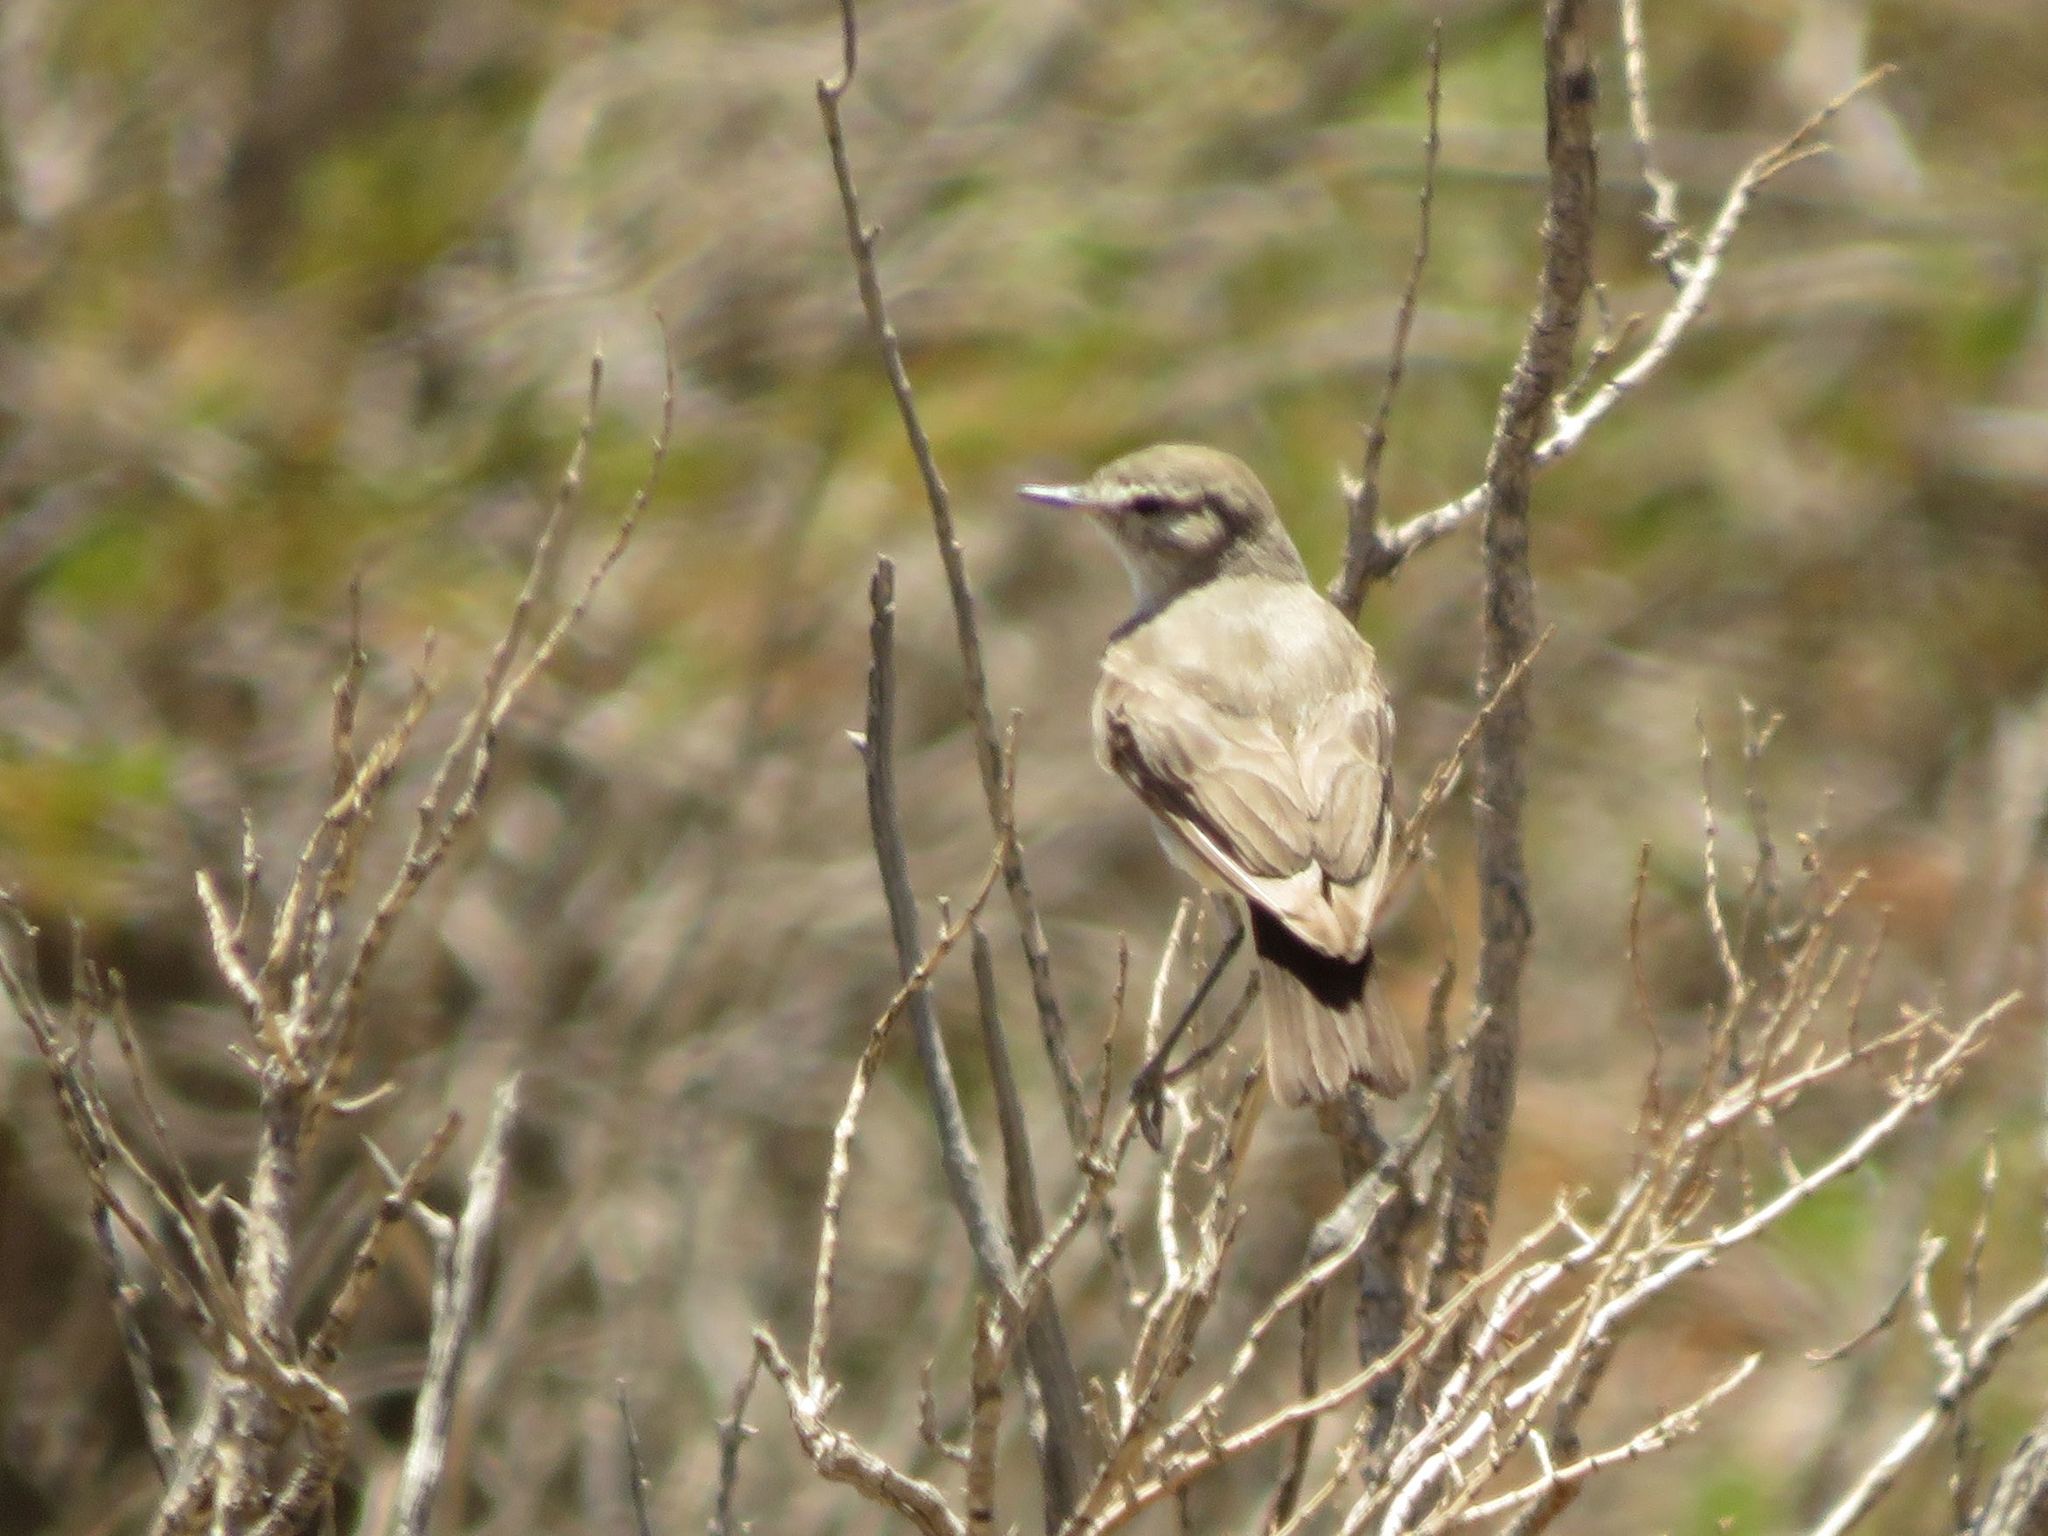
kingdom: Animalia
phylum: Chordata
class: Aves
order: Passeriformes
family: Tyrannidae
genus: Muscisaxicola
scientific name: Muscisaxicola maculirostris
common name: Spot-billed ground tyrant
